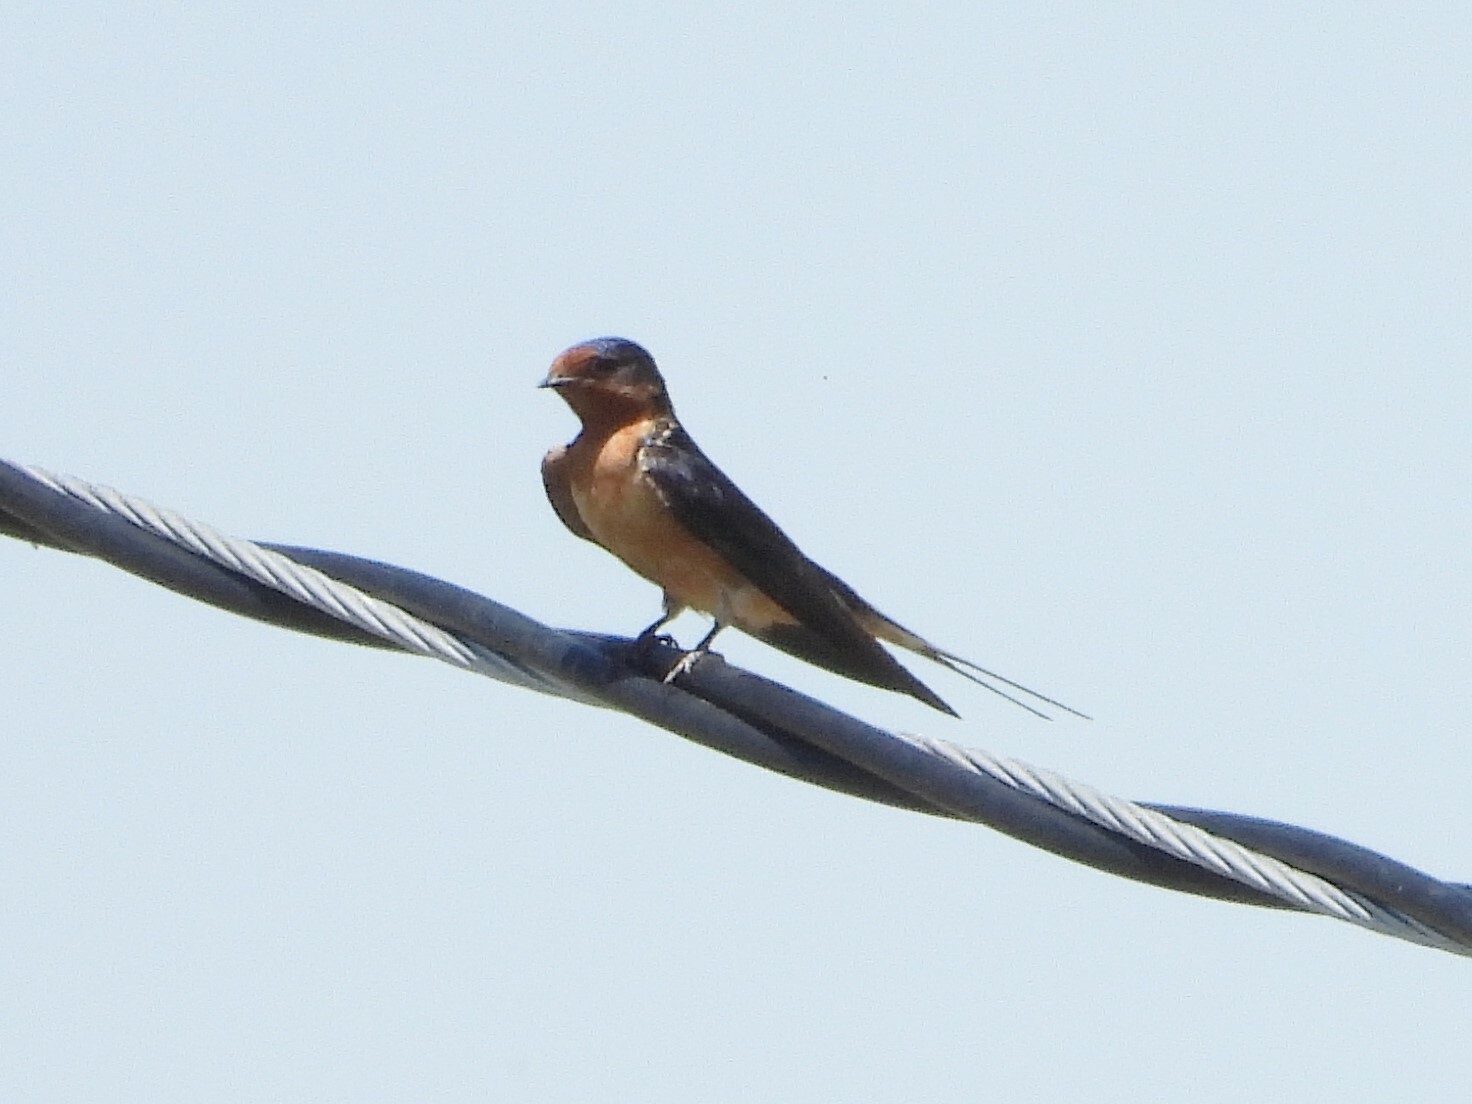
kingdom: Animalia
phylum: Chordata
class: Aves
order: Passeriformes
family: Hirundinidae
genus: Hirundo
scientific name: Hirundo rustica
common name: Barn swallow
